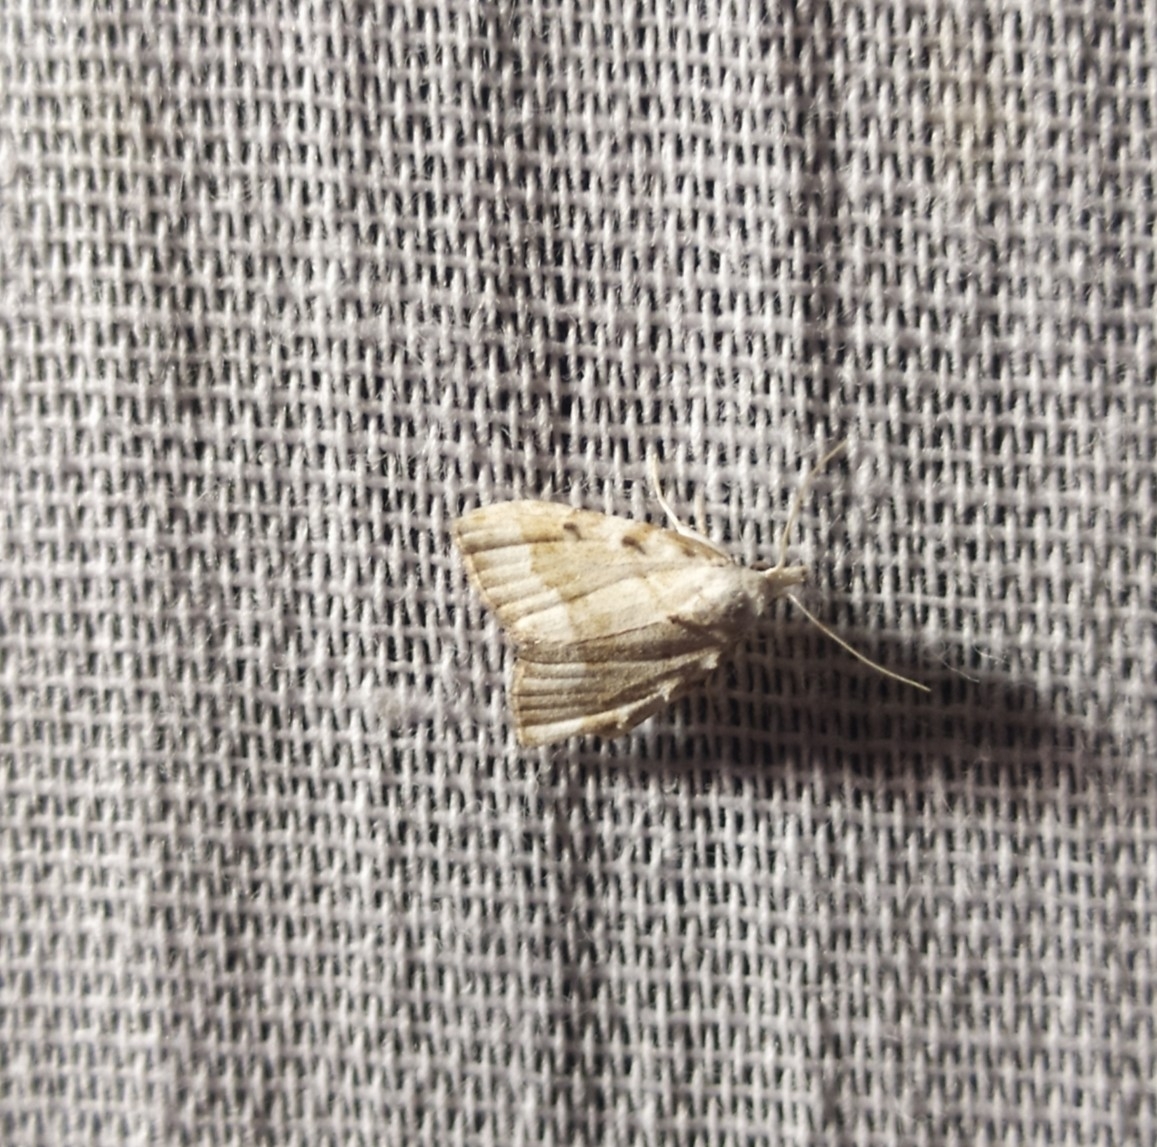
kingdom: Animalia
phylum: Arthropoda
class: Insecta
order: Lepidoptera
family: Nolidae
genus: Nola
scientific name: Nola aerugula
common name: Scarce black arches
